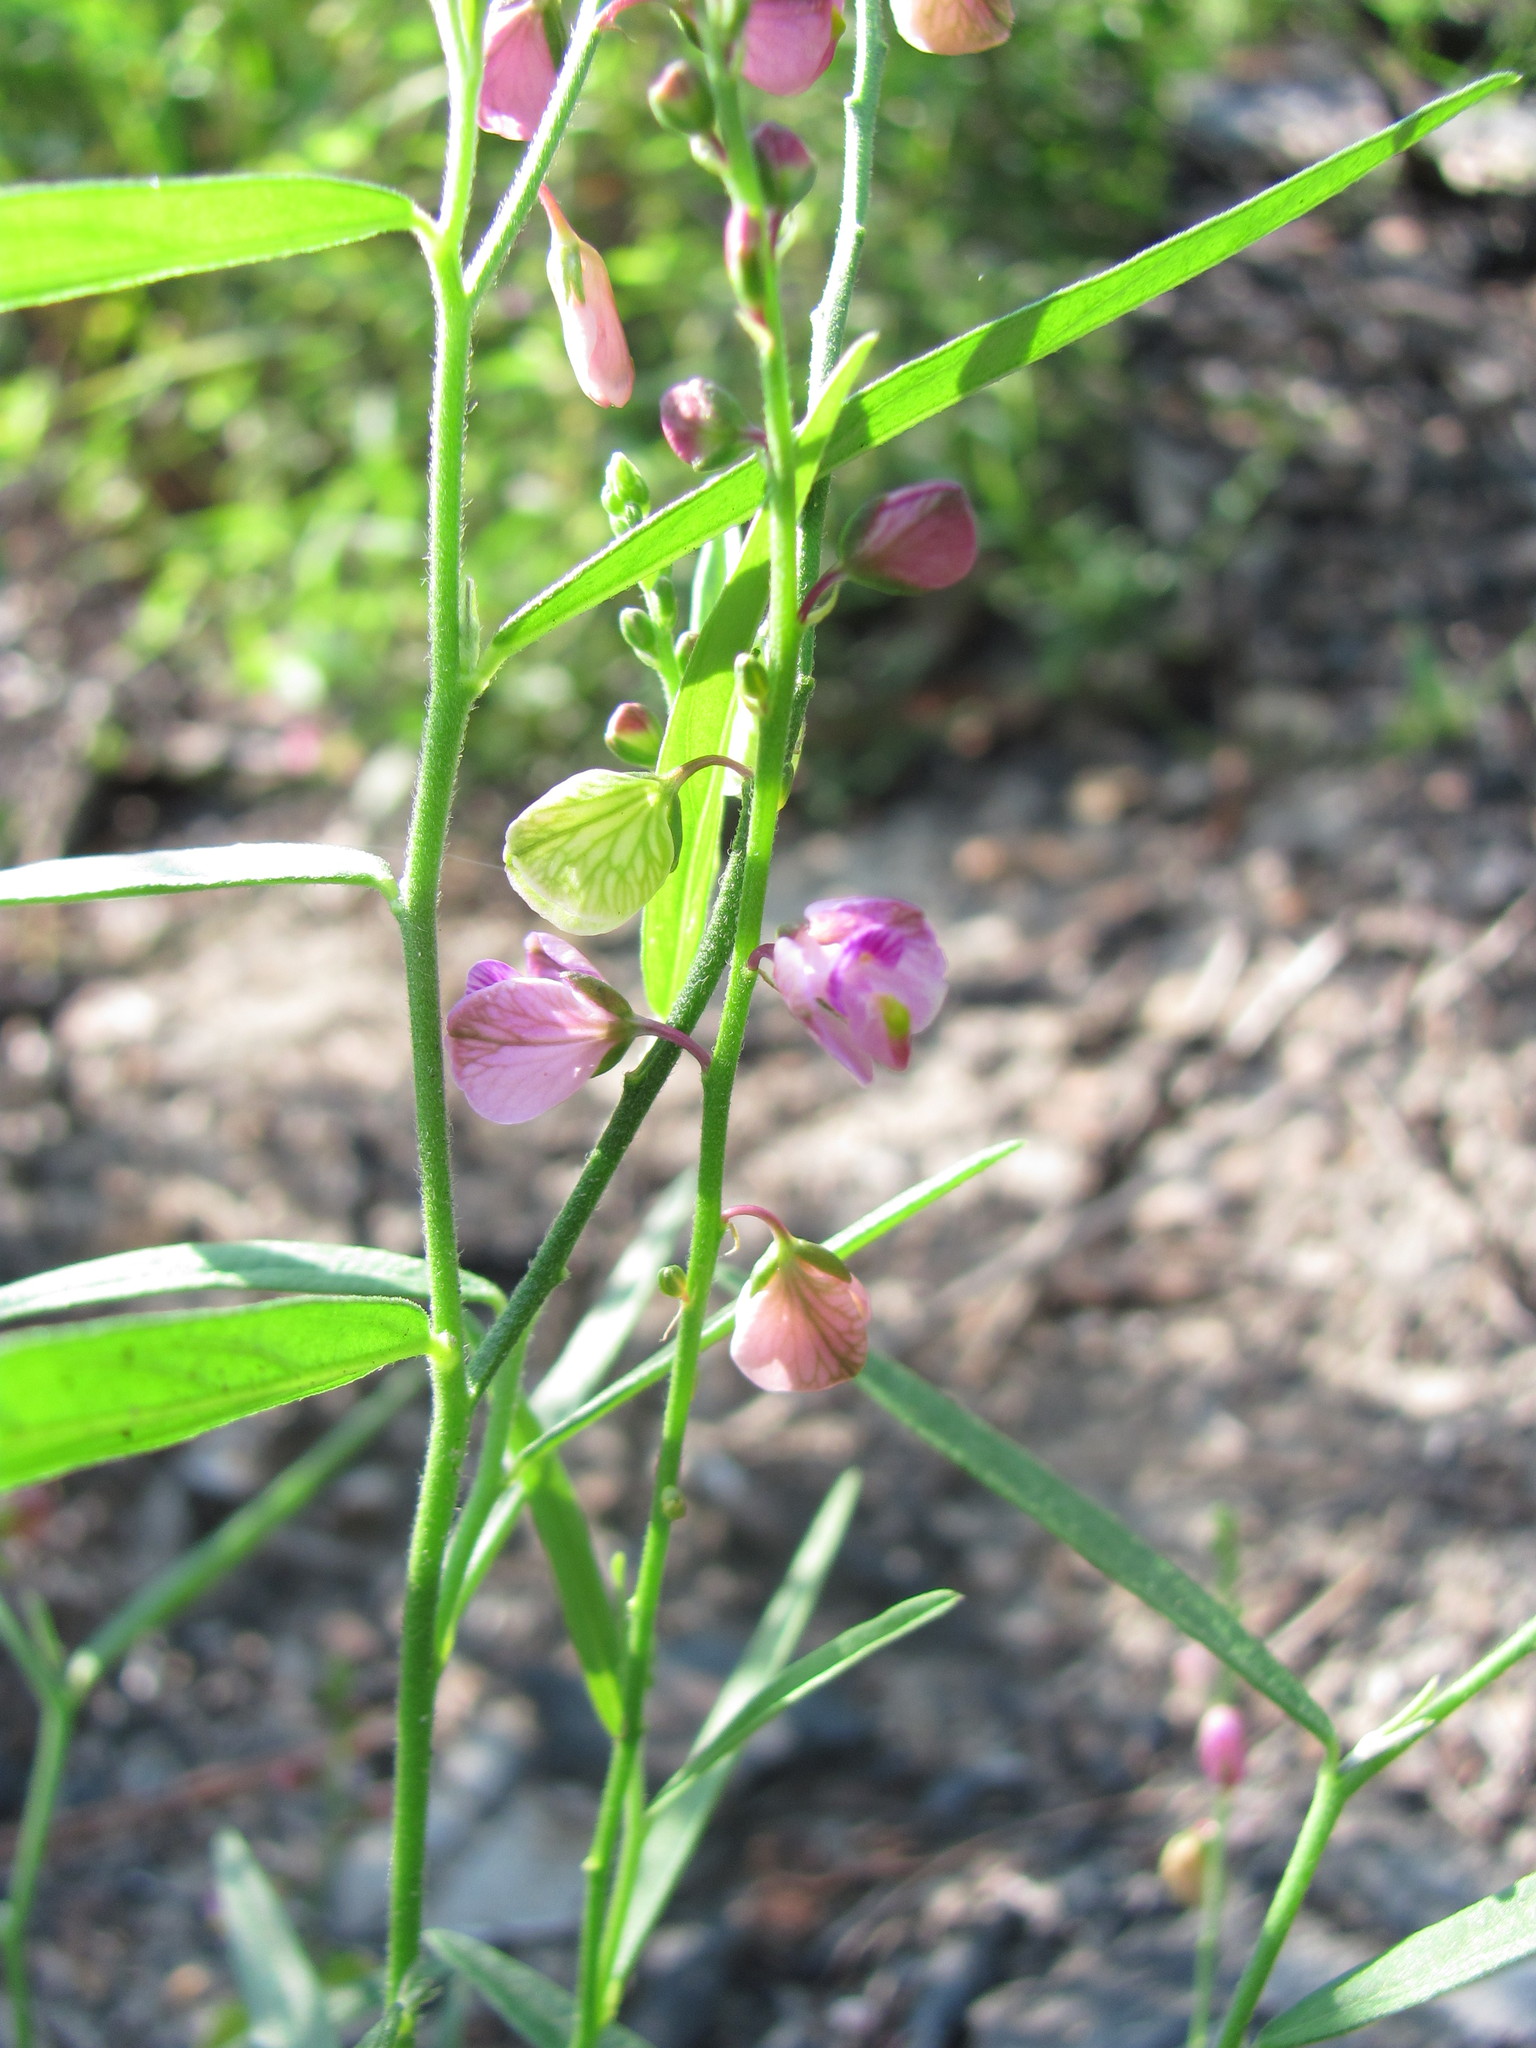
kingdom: Plantae
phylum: Tracheophyta
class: Magnoliopsida
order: Fabales
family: Polygalaceae
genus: Asemeia
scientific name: Asemeia grandiflora
